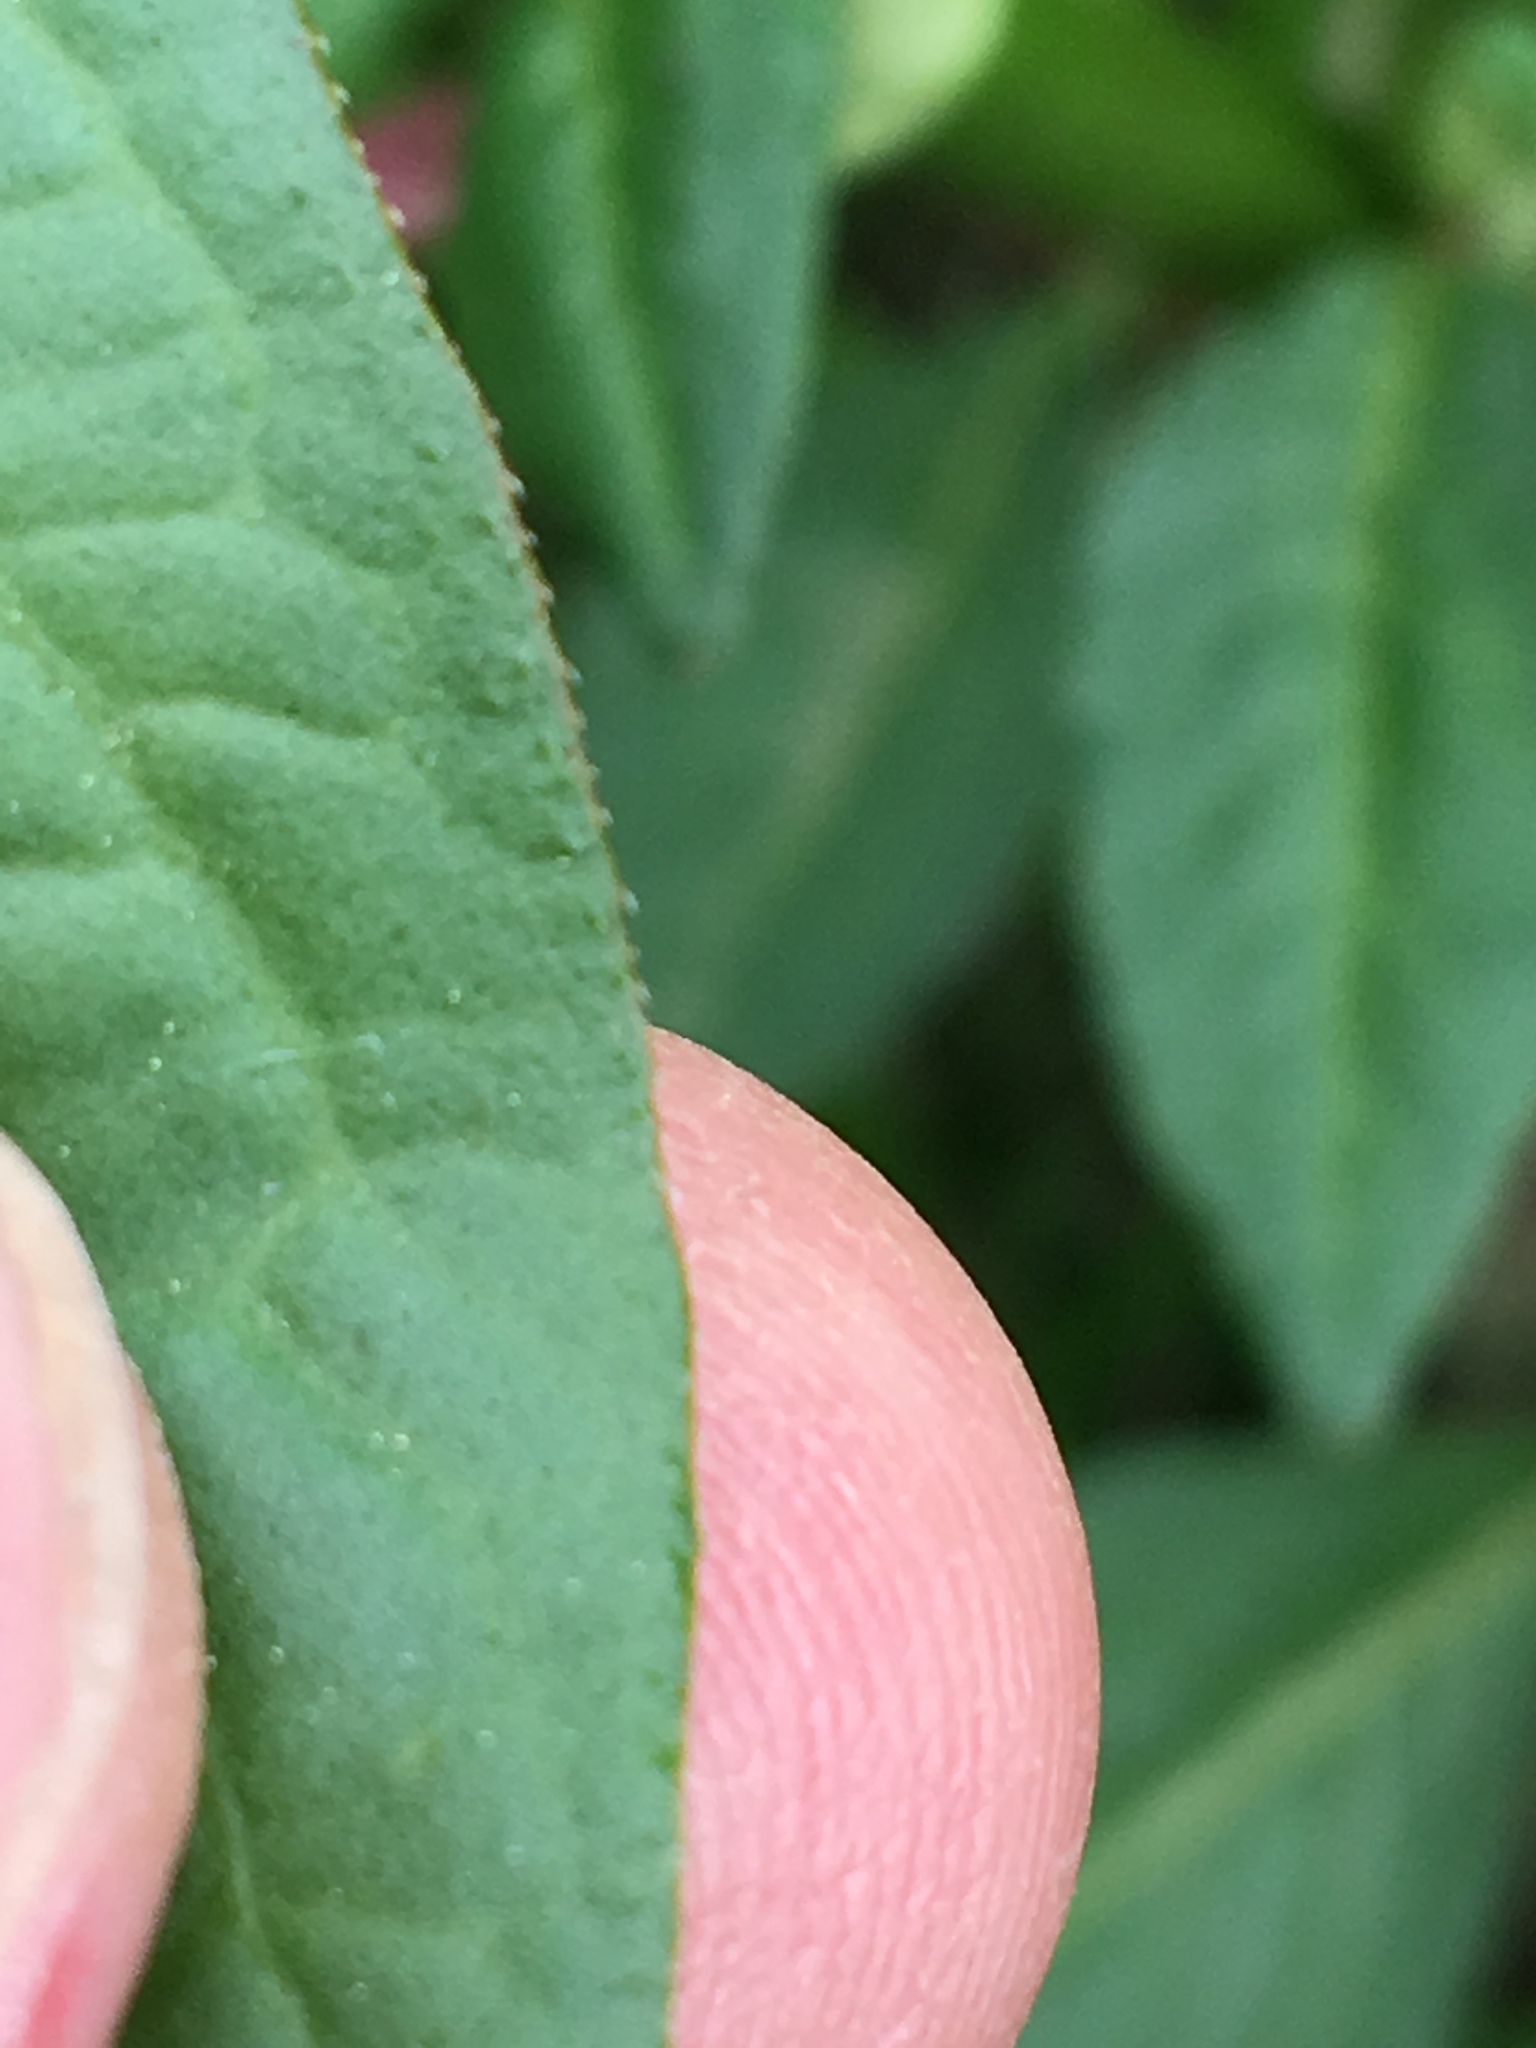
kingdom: Plantae
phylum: Tracheophyta
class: Magnoliopsida
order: Caryophyllales
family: Polygonaceae
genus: Persicaria
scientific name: Persicaria lapathifolia
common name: Curlytop knotweed
